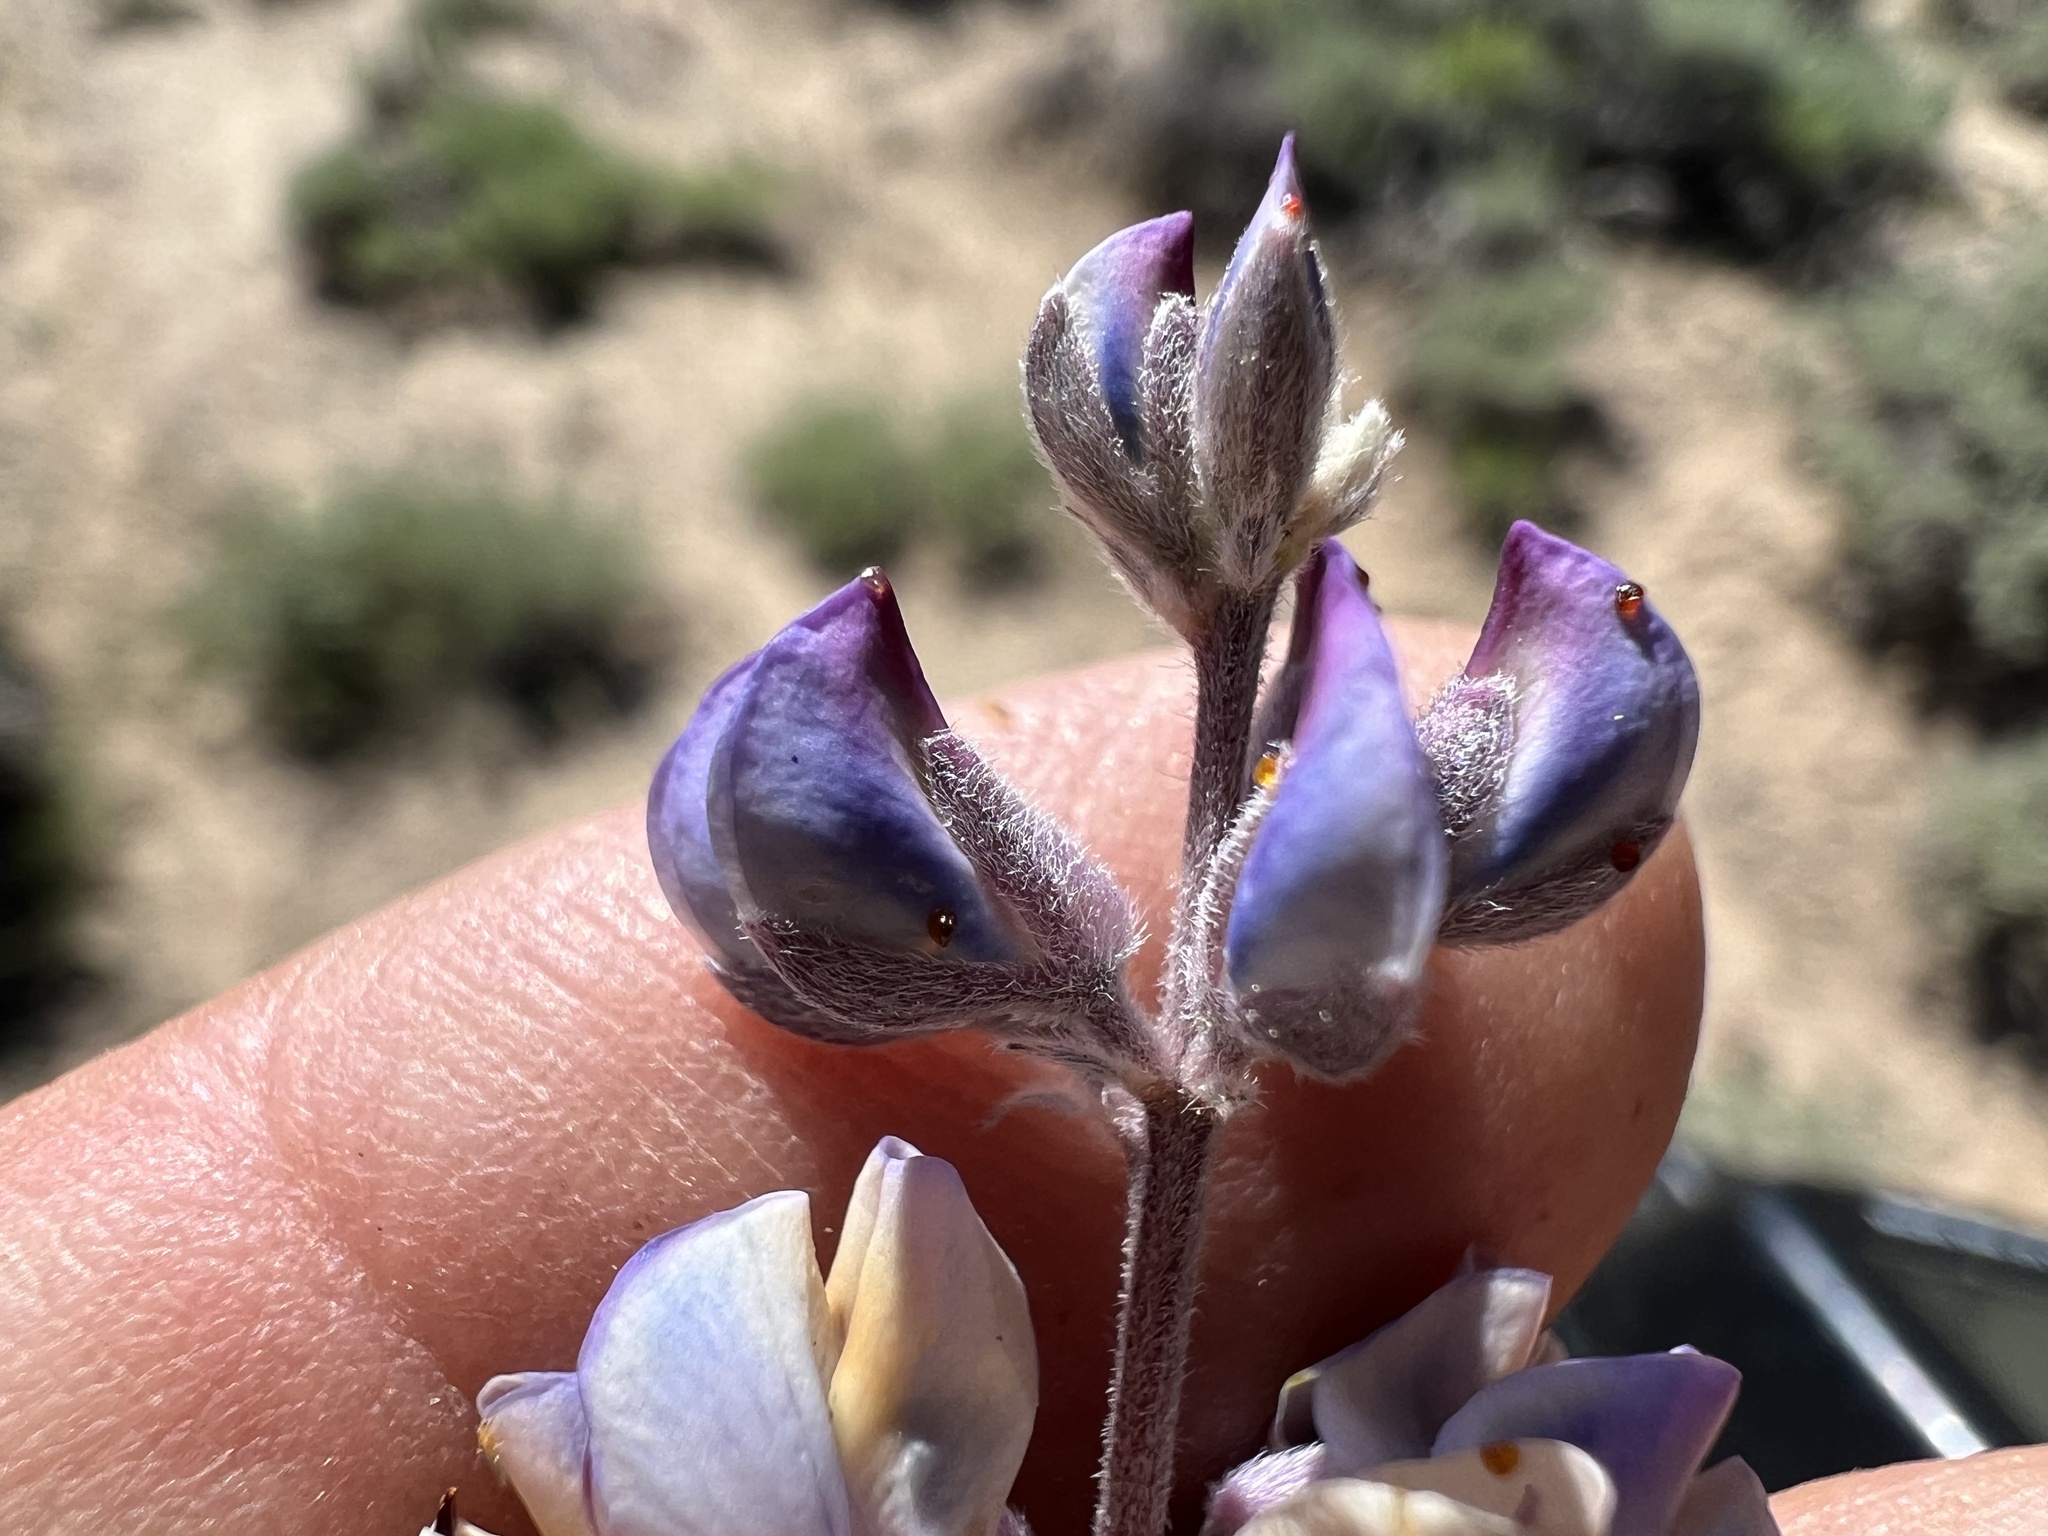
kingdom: Plantae
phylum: Tracheophyta
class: Magnoliopsida
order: Fabales
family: Fabaceae
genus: Lupinus
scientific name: Lupinus argenteus
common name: Silvery lupine
